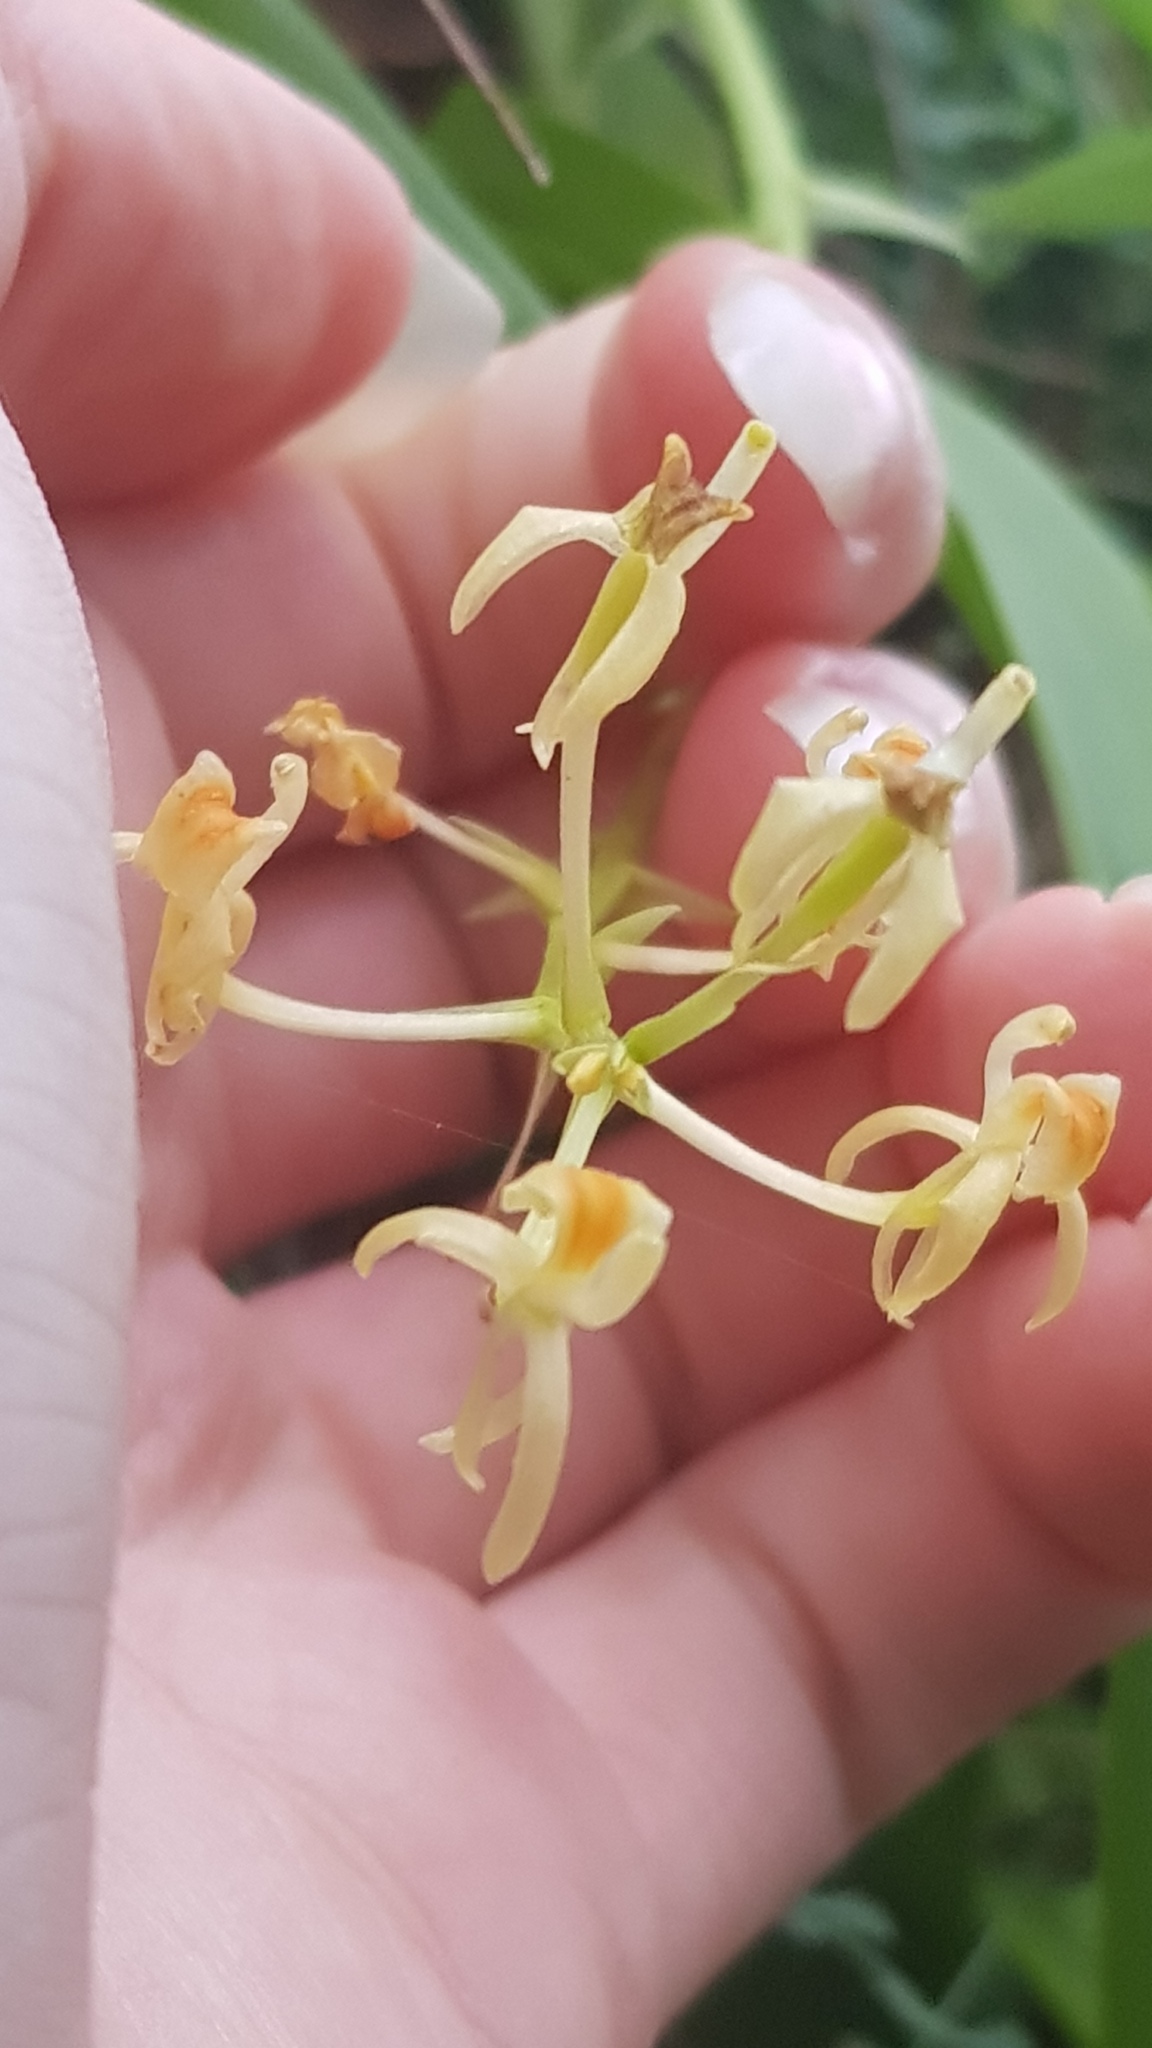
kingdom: Plantae
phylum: Tracheophyta
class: Liliopsida
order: Asparagales
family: Orchidaceae
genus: Liparis
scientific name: Liparis reflexa
